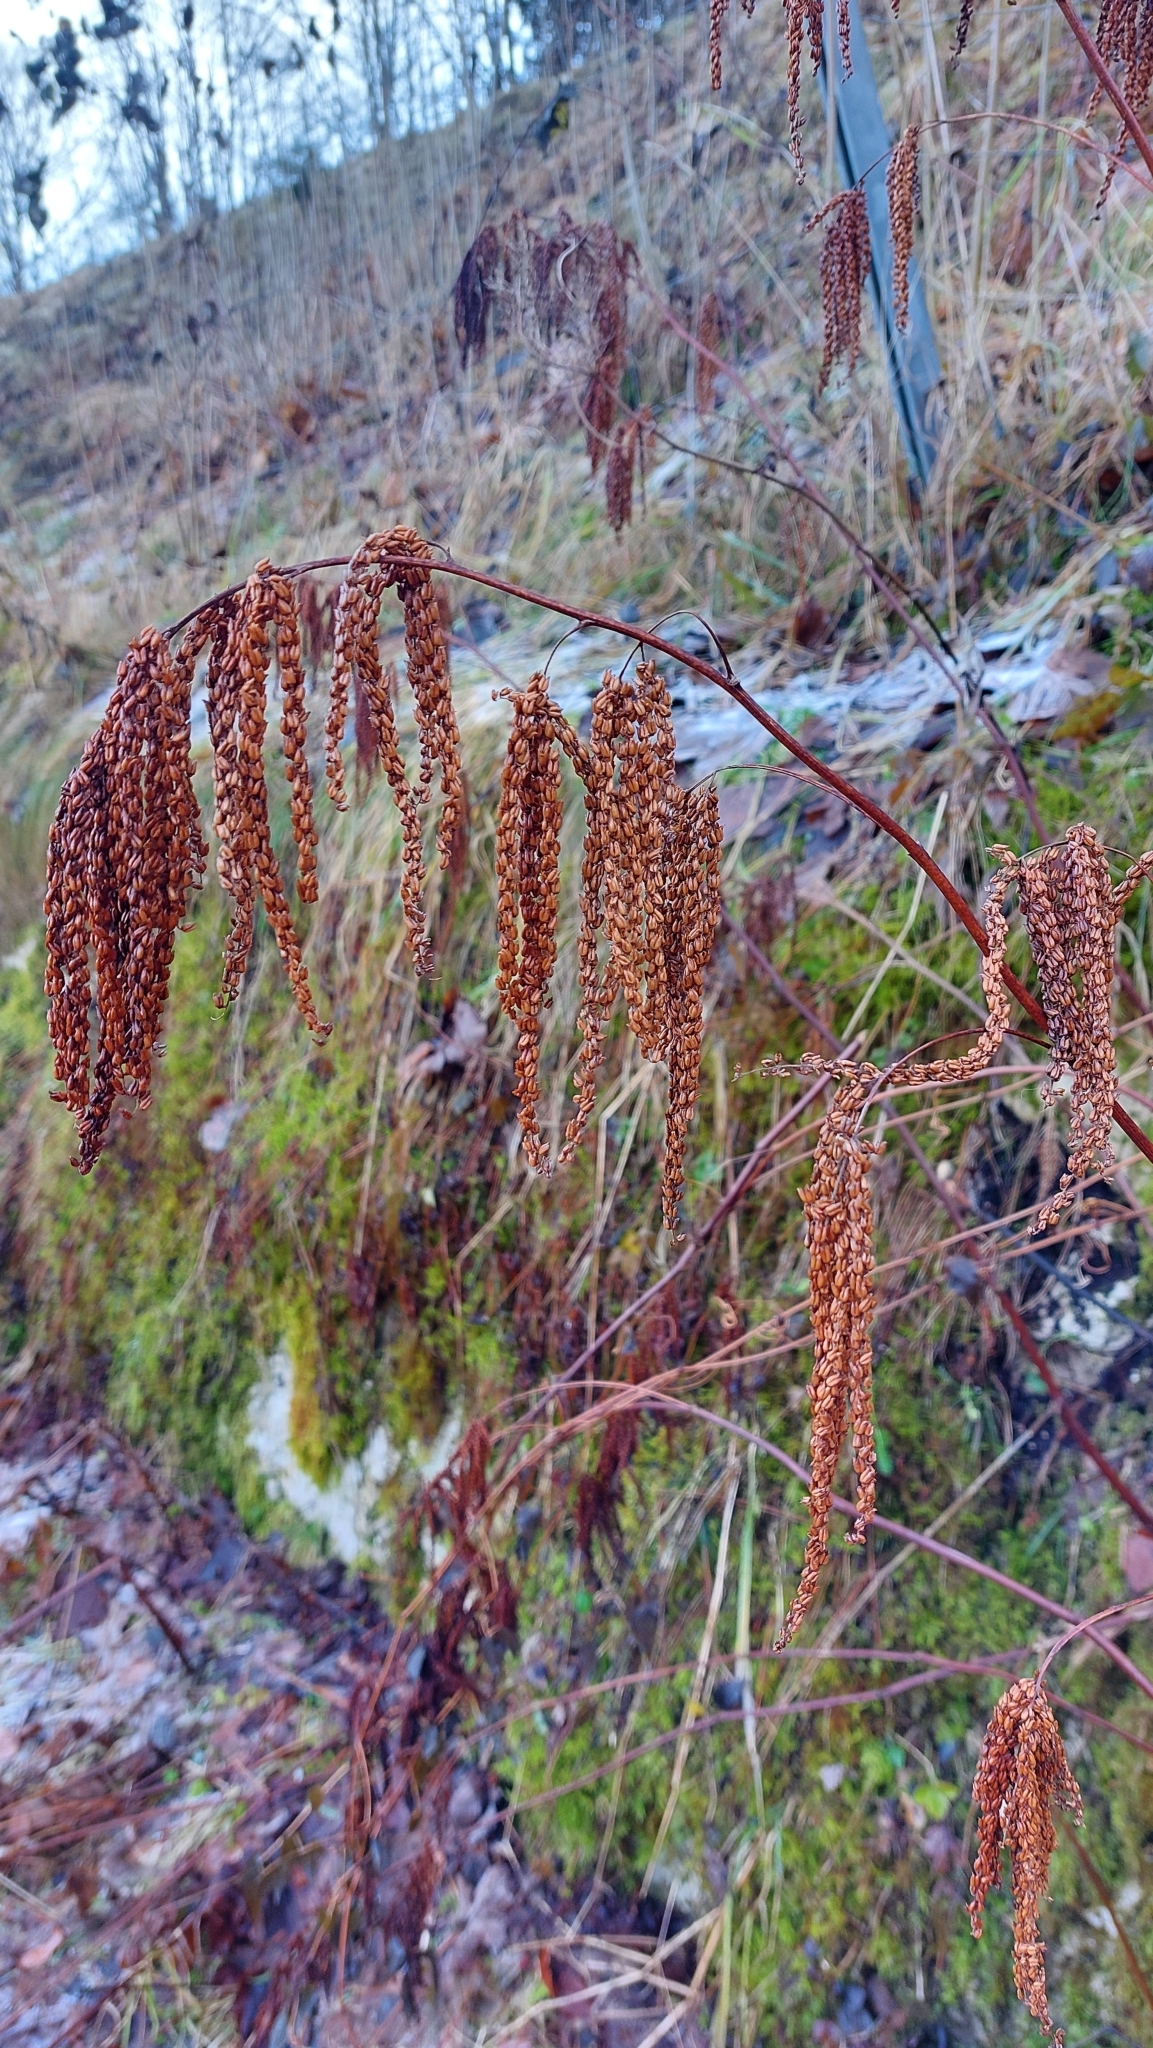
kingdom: Plantae
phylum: Tracheophyta
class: Magnoliopsida
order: Rosales
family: Rosaceae
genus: Aruncus
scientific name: Aruncus dioicus
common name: Buck's-beard
